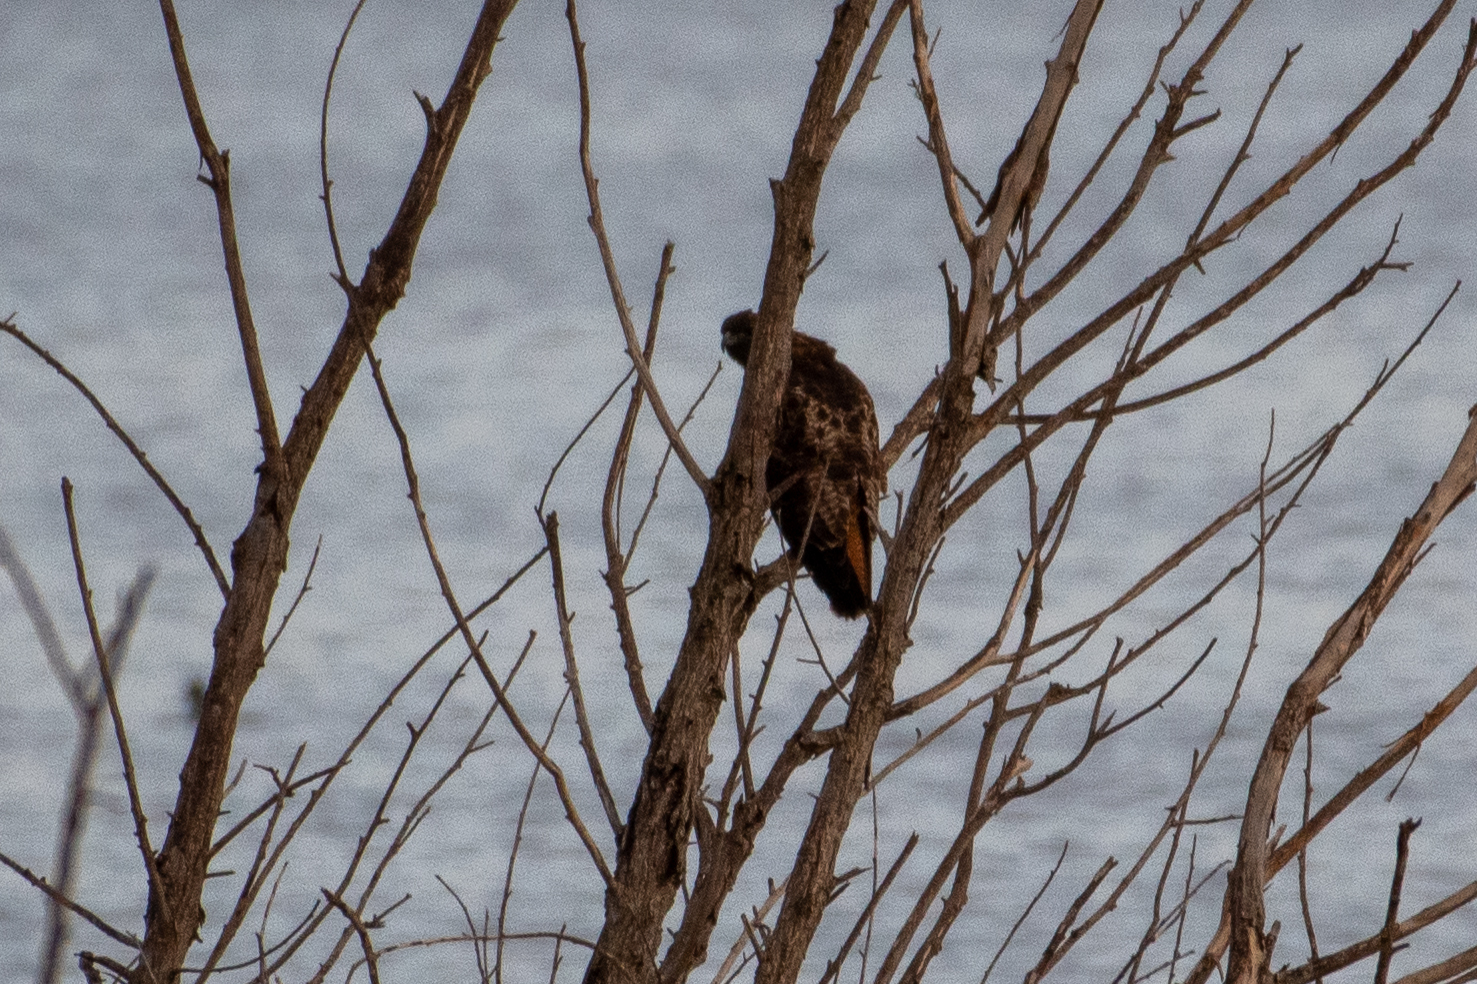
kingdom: Animalia
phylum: Chordata
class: Aves
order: Accipitriformes
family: Accipitridae
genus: Buteo
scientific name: Buteo jamaicensis
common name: Red-tailed hawk
